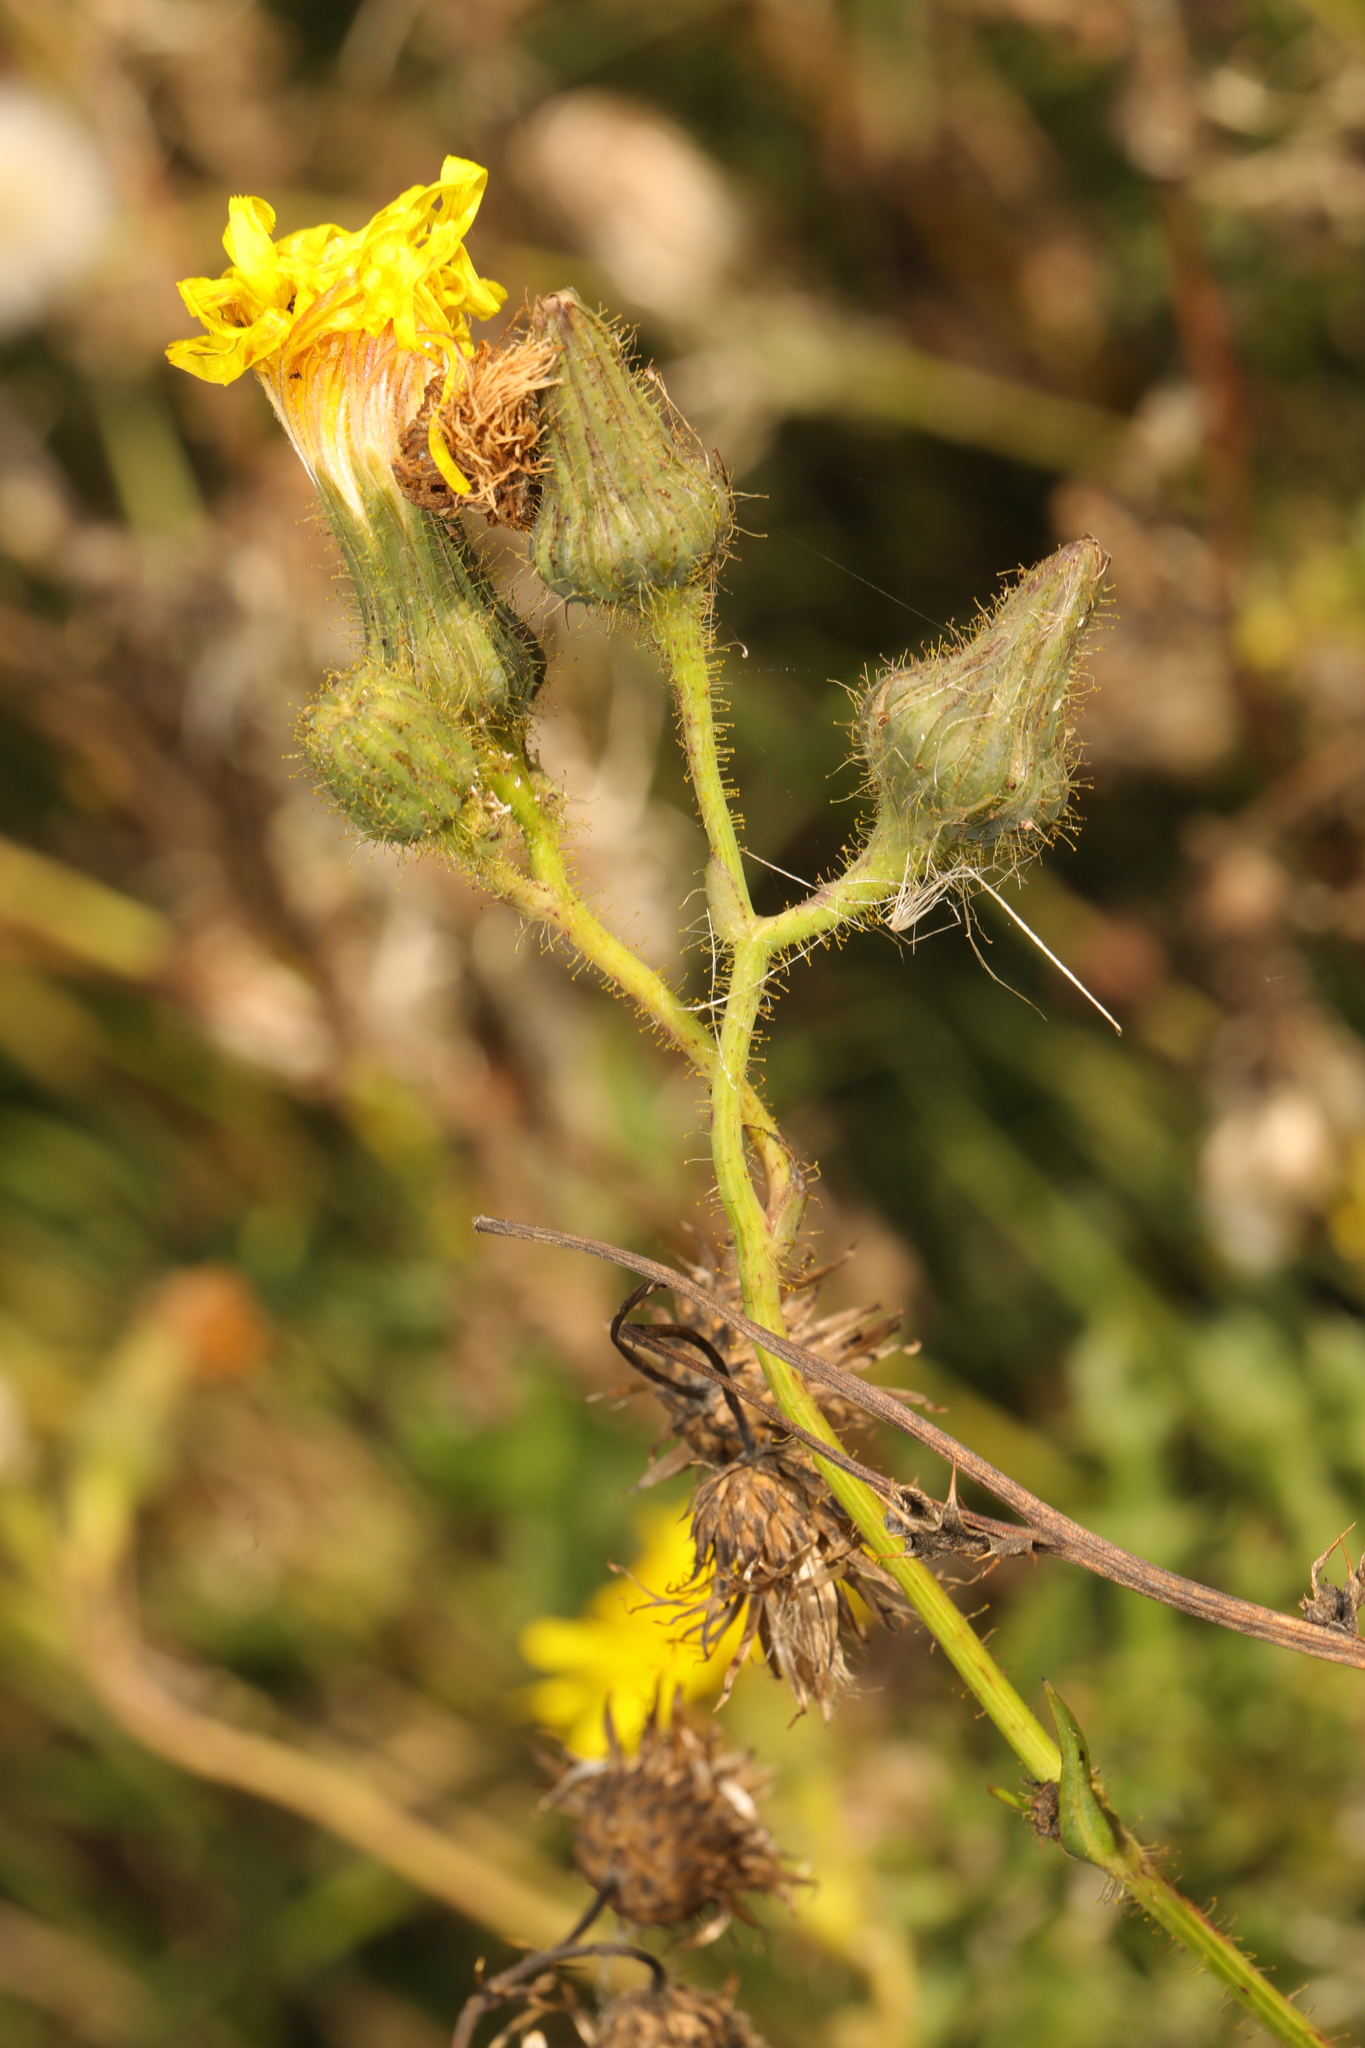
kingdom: Plantae
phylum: Tracheophyta
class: Magnoliopsida
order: Asterales
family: Asteraceae
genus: Sonchus
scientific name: Sonchus arvensis
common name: Perennial sow-thistle
